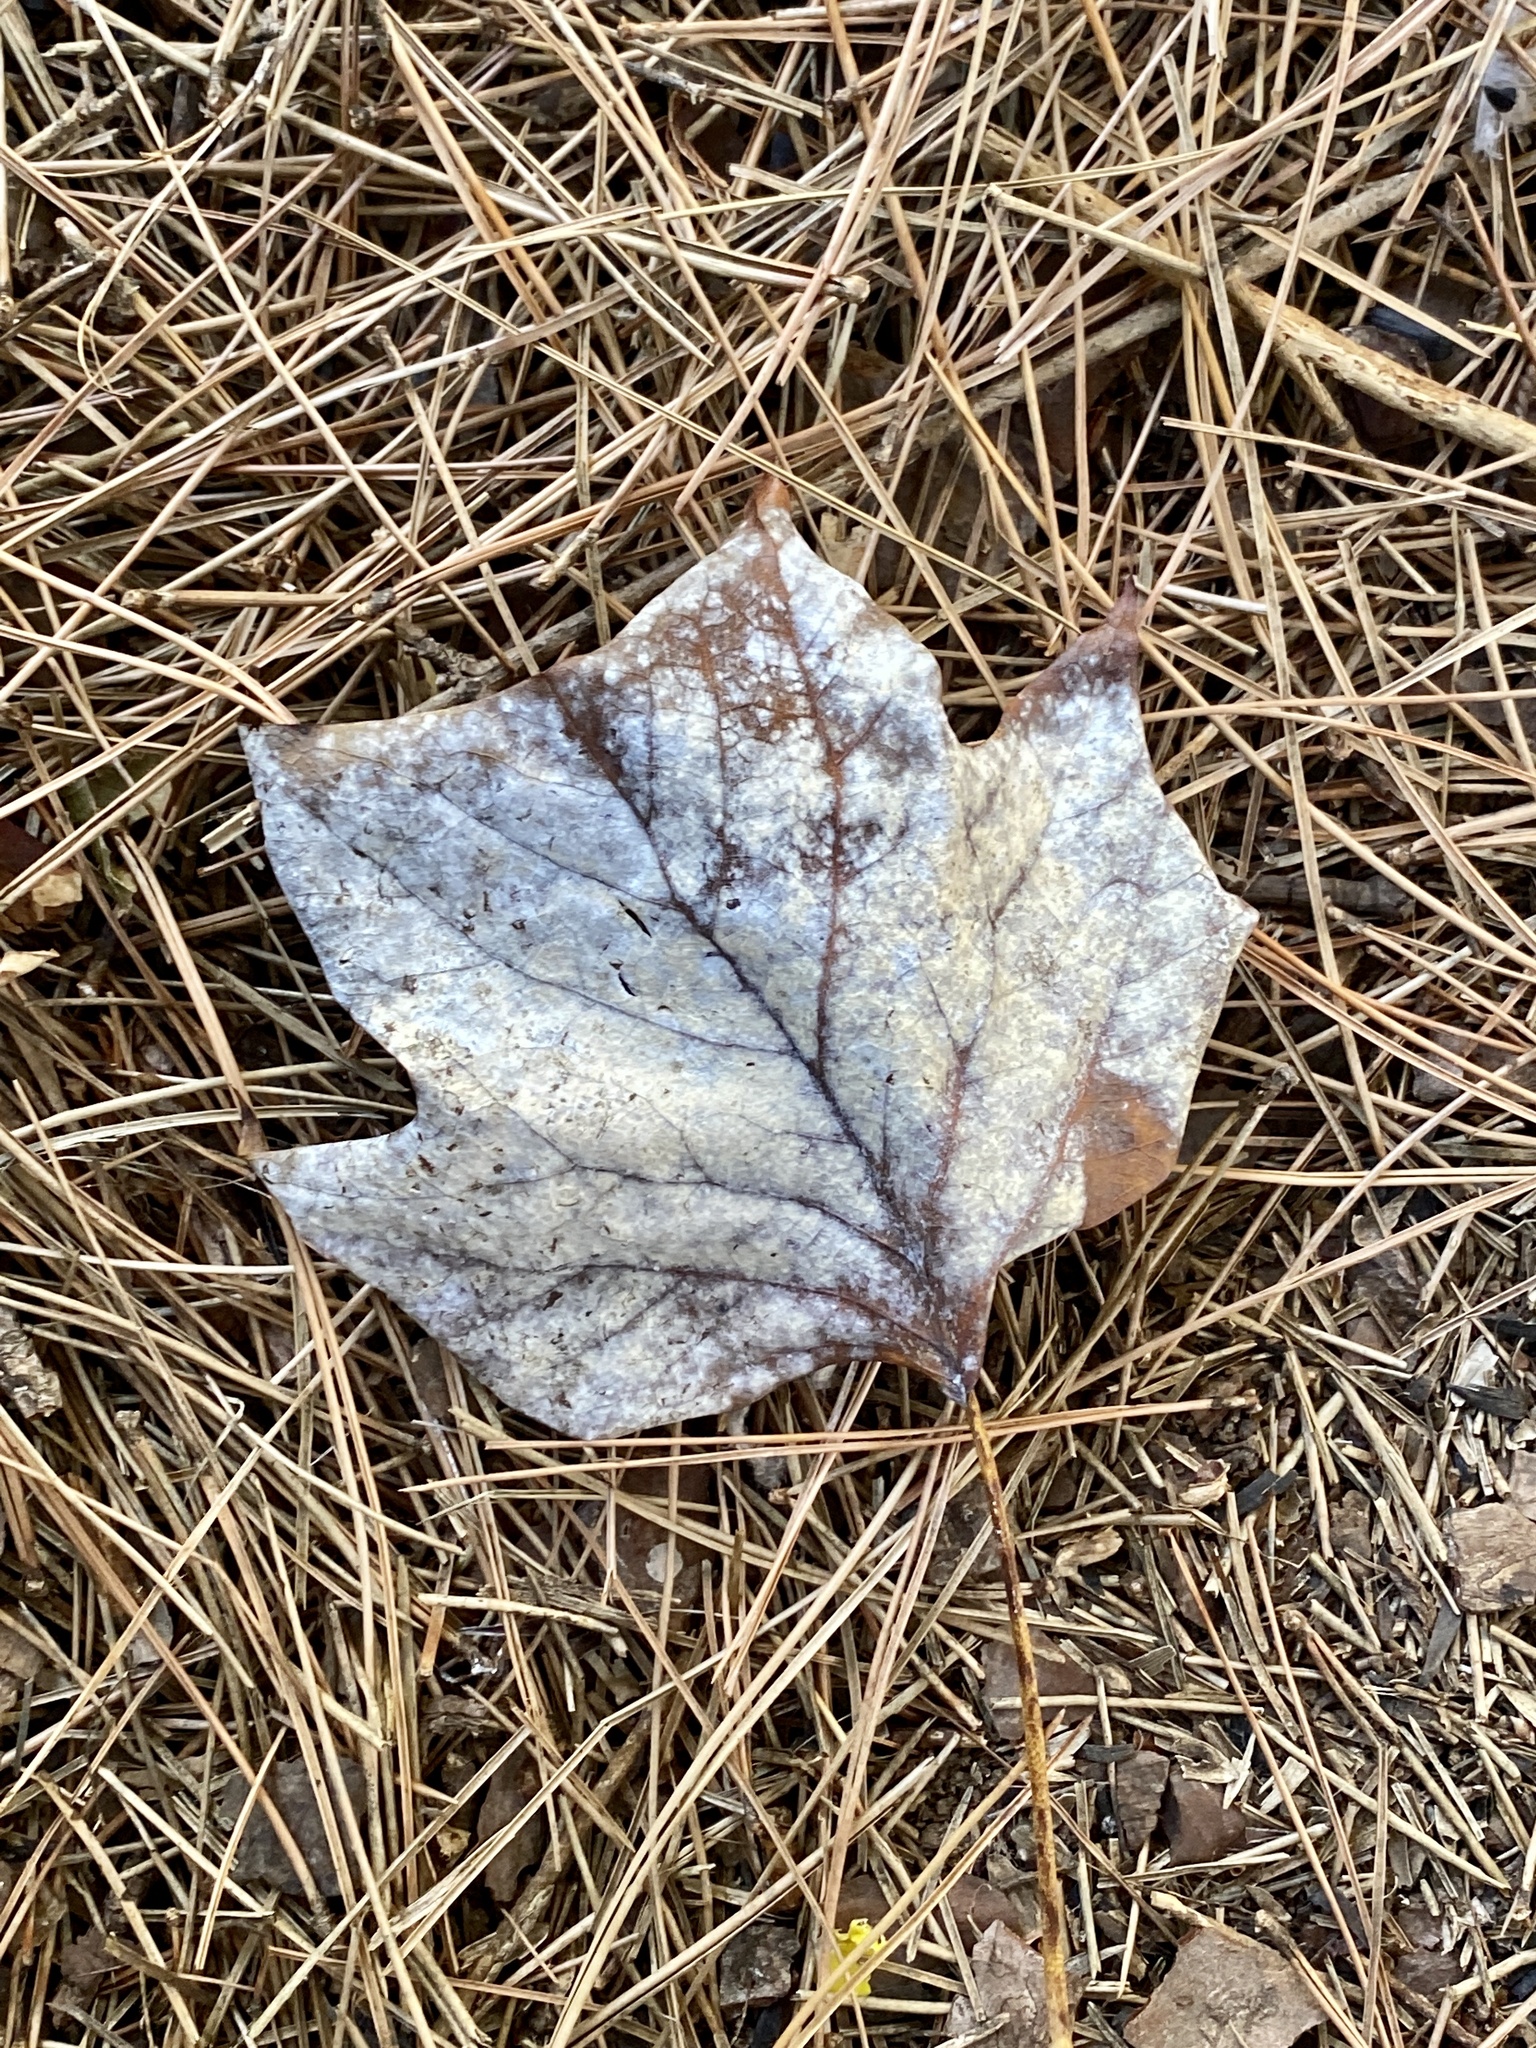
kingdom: Plantae
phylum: Tracheophyta
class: Magnoliopsida
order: Magnoliales
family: Magnoliaceae
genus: Liriodendron
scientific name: Liriodendron tulipifera
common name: Tulip tree
